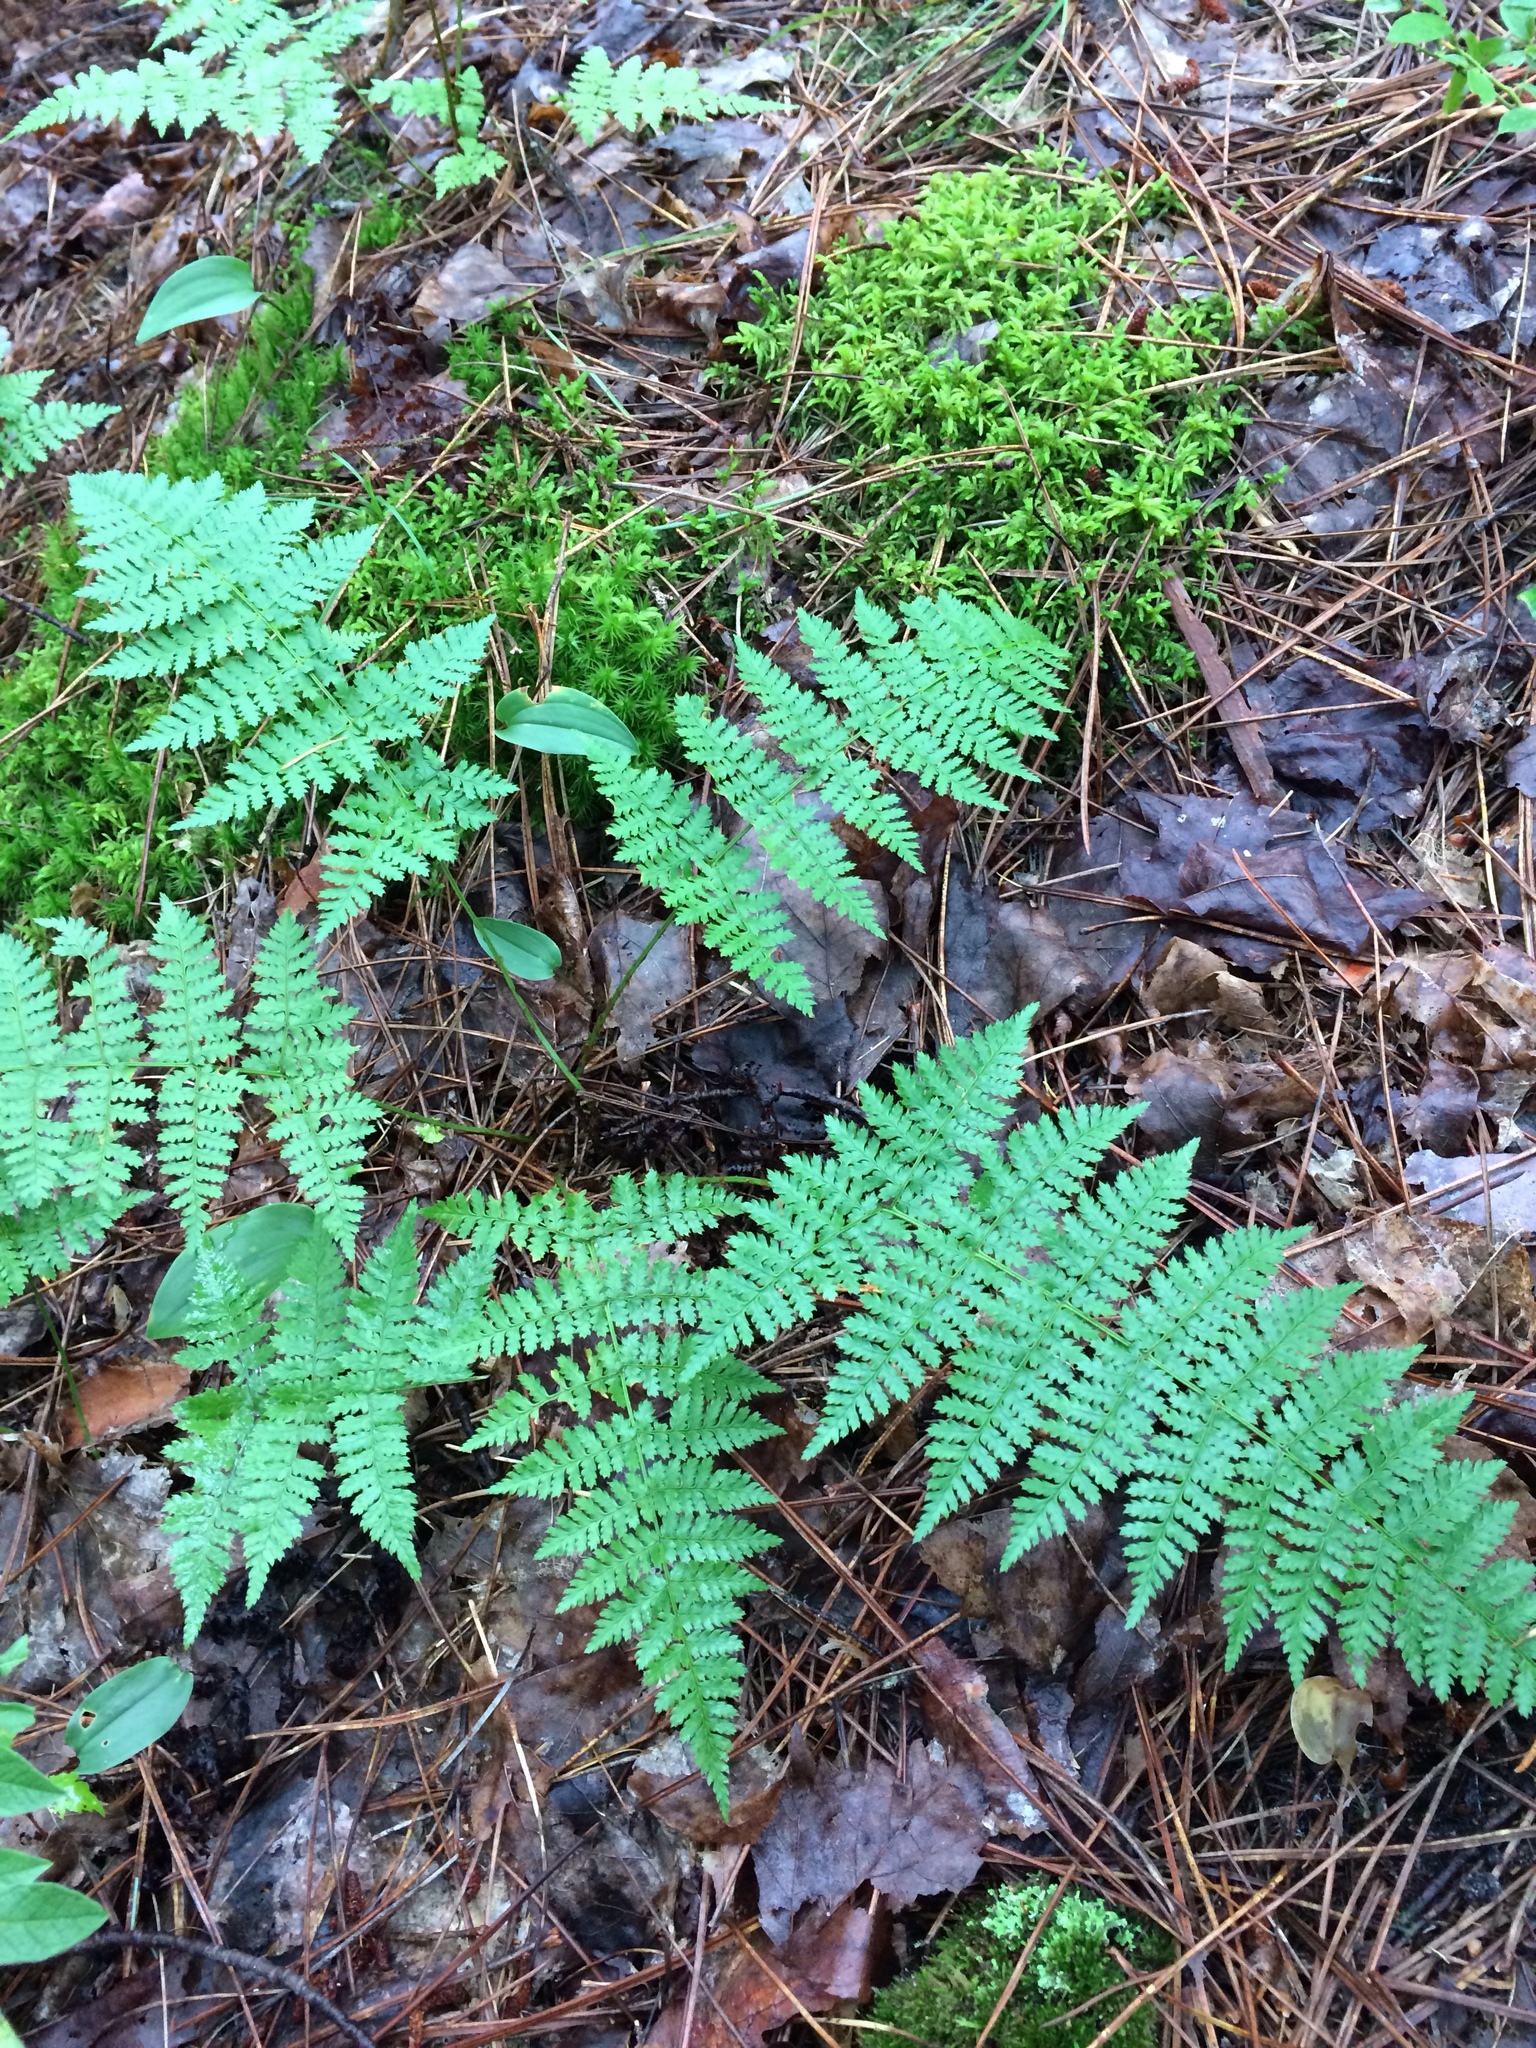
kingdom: Plantae
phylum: Tracheophyta
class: Polypodiopsida
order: Polypodiales
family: Dryopteridaceae
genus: Dryopteris
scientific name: Dryopteris intermedia
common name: Evergreen wood fern
